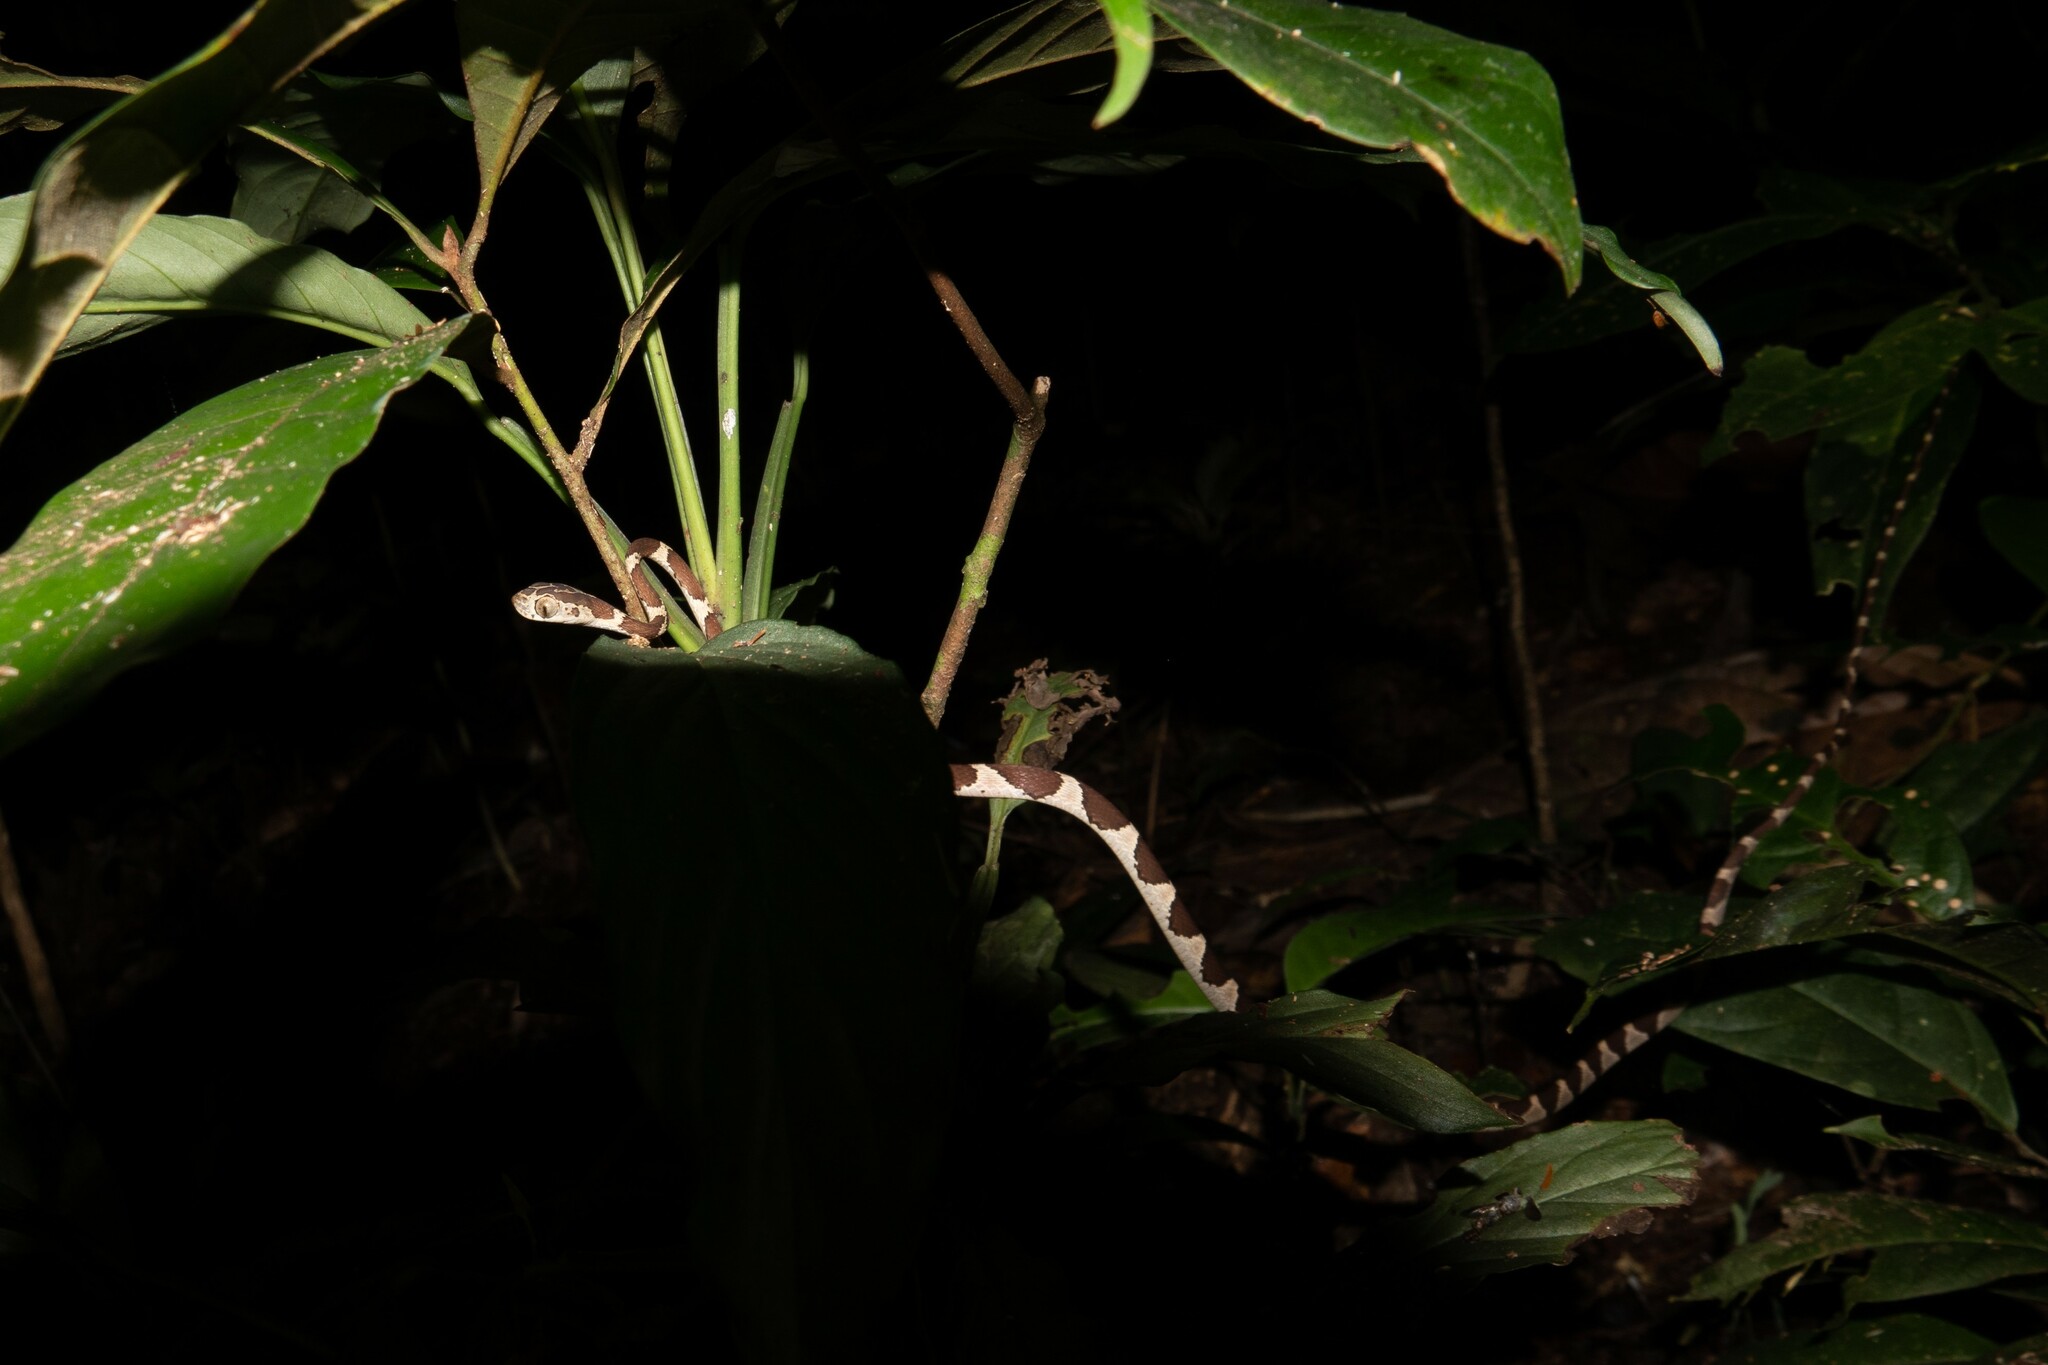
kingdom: Animalia
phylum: Chordata
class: Squamata
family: Colubridae
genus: Imantodes
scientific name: Imantodes cenchoa
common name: Blunthead tree snake
